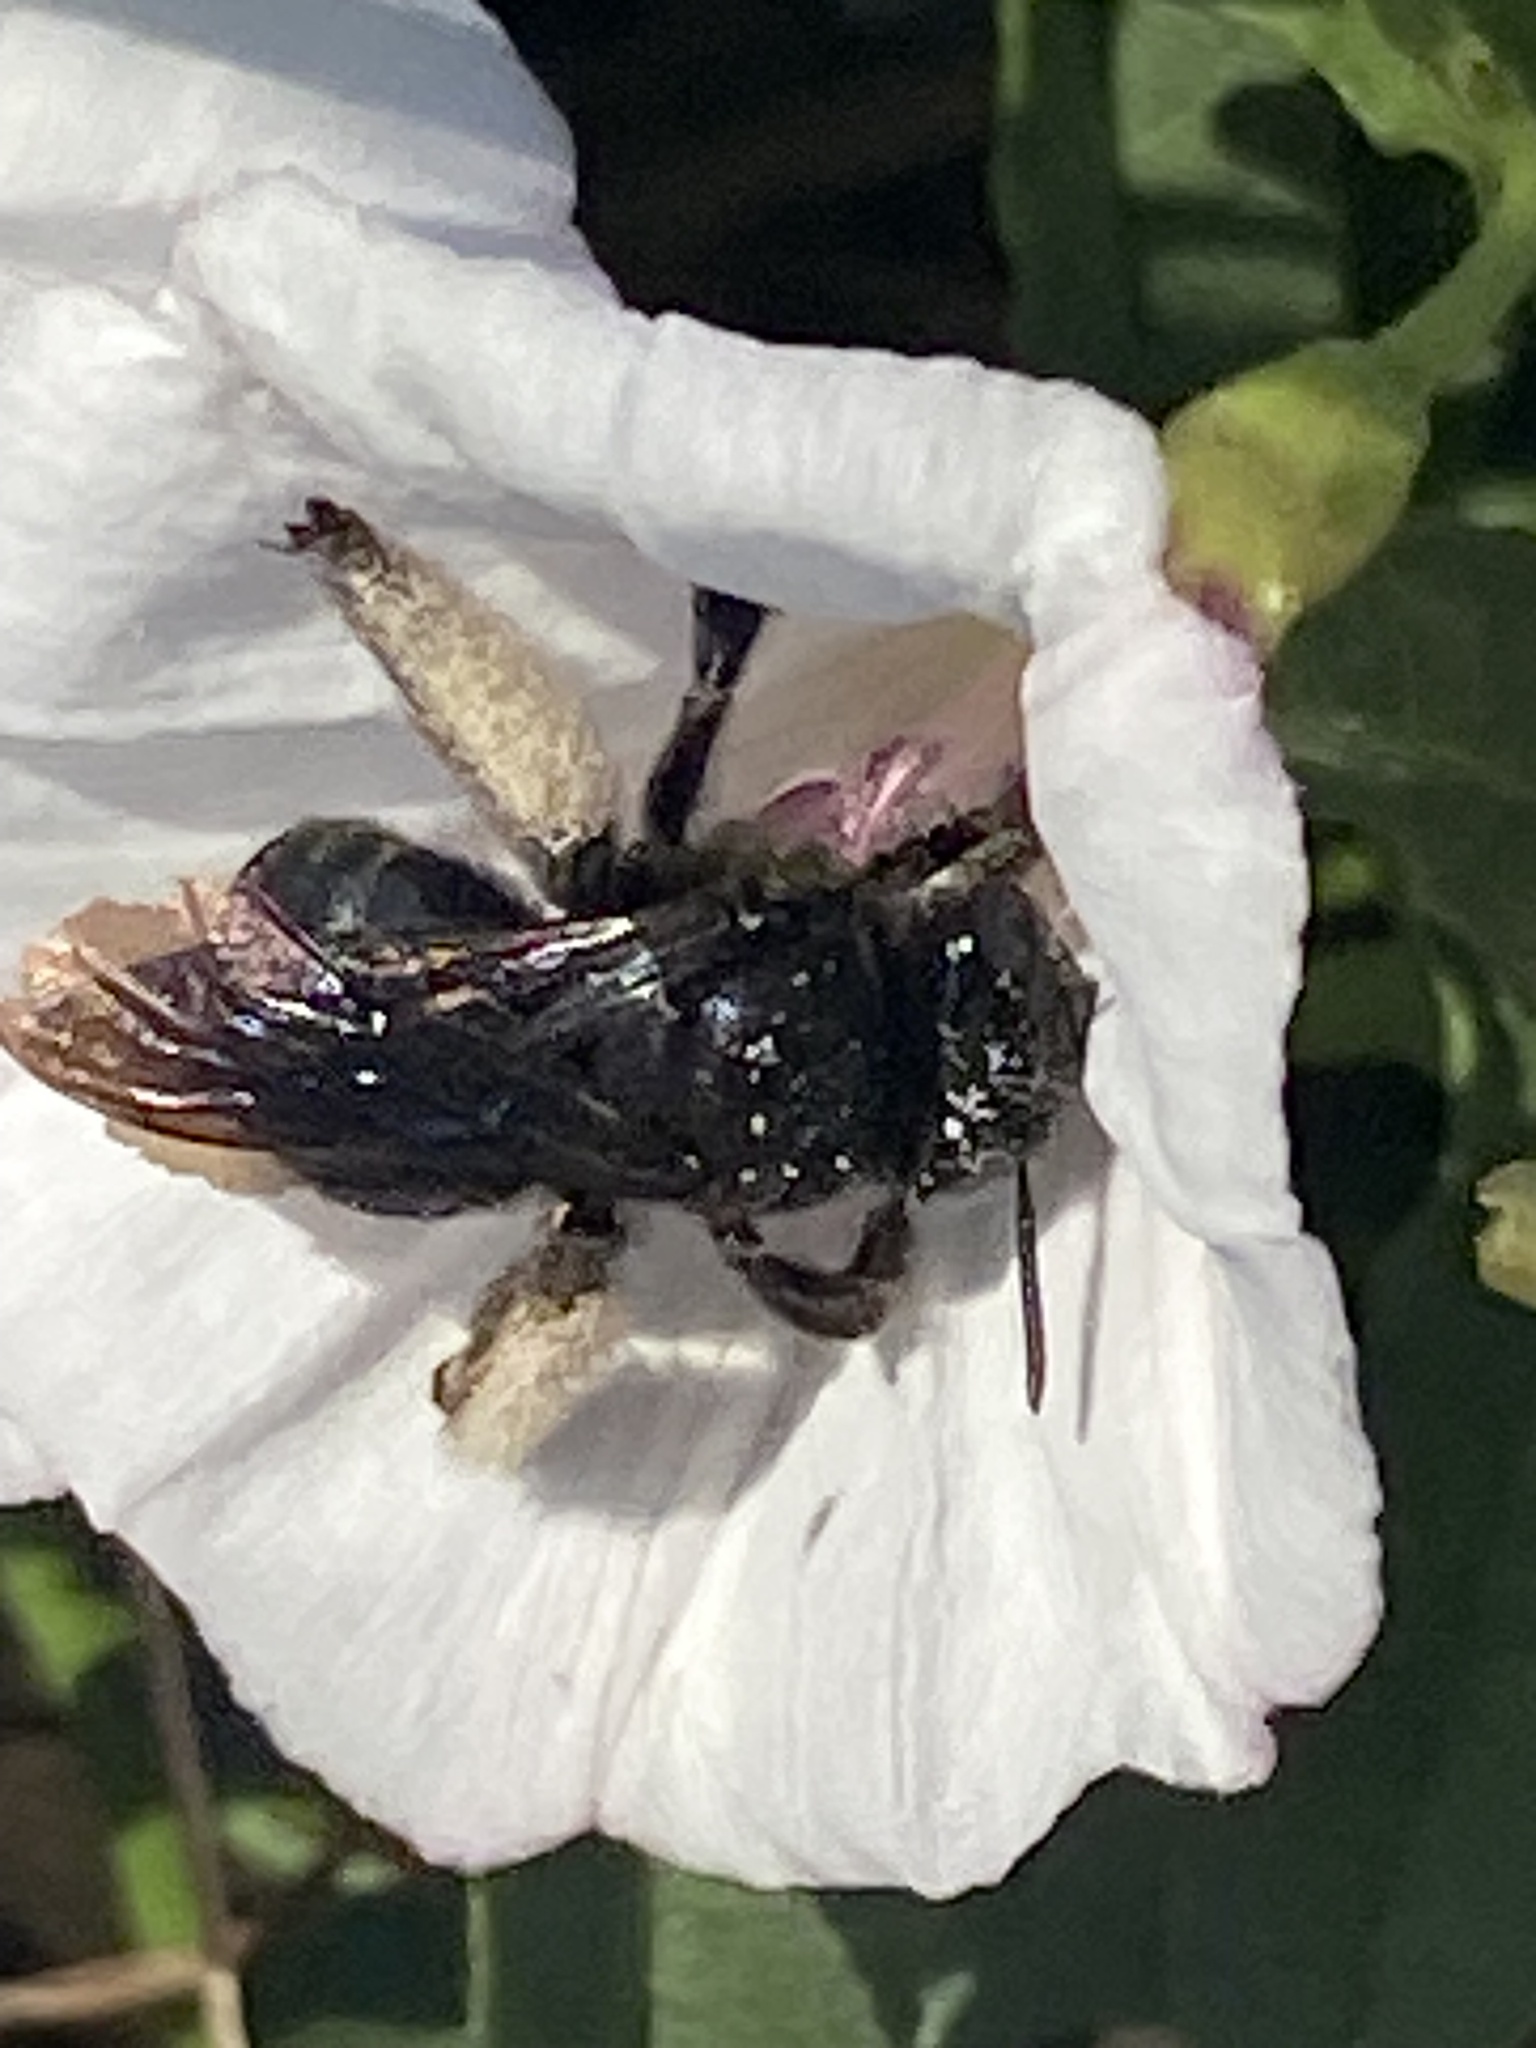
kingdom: Animalia
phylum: Arthropoda
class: Insecta
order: Hymenoptera
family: Apidae
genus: Melissodes
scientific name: Melissodes bimaculatus
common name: Two-spotted long-horned bee
